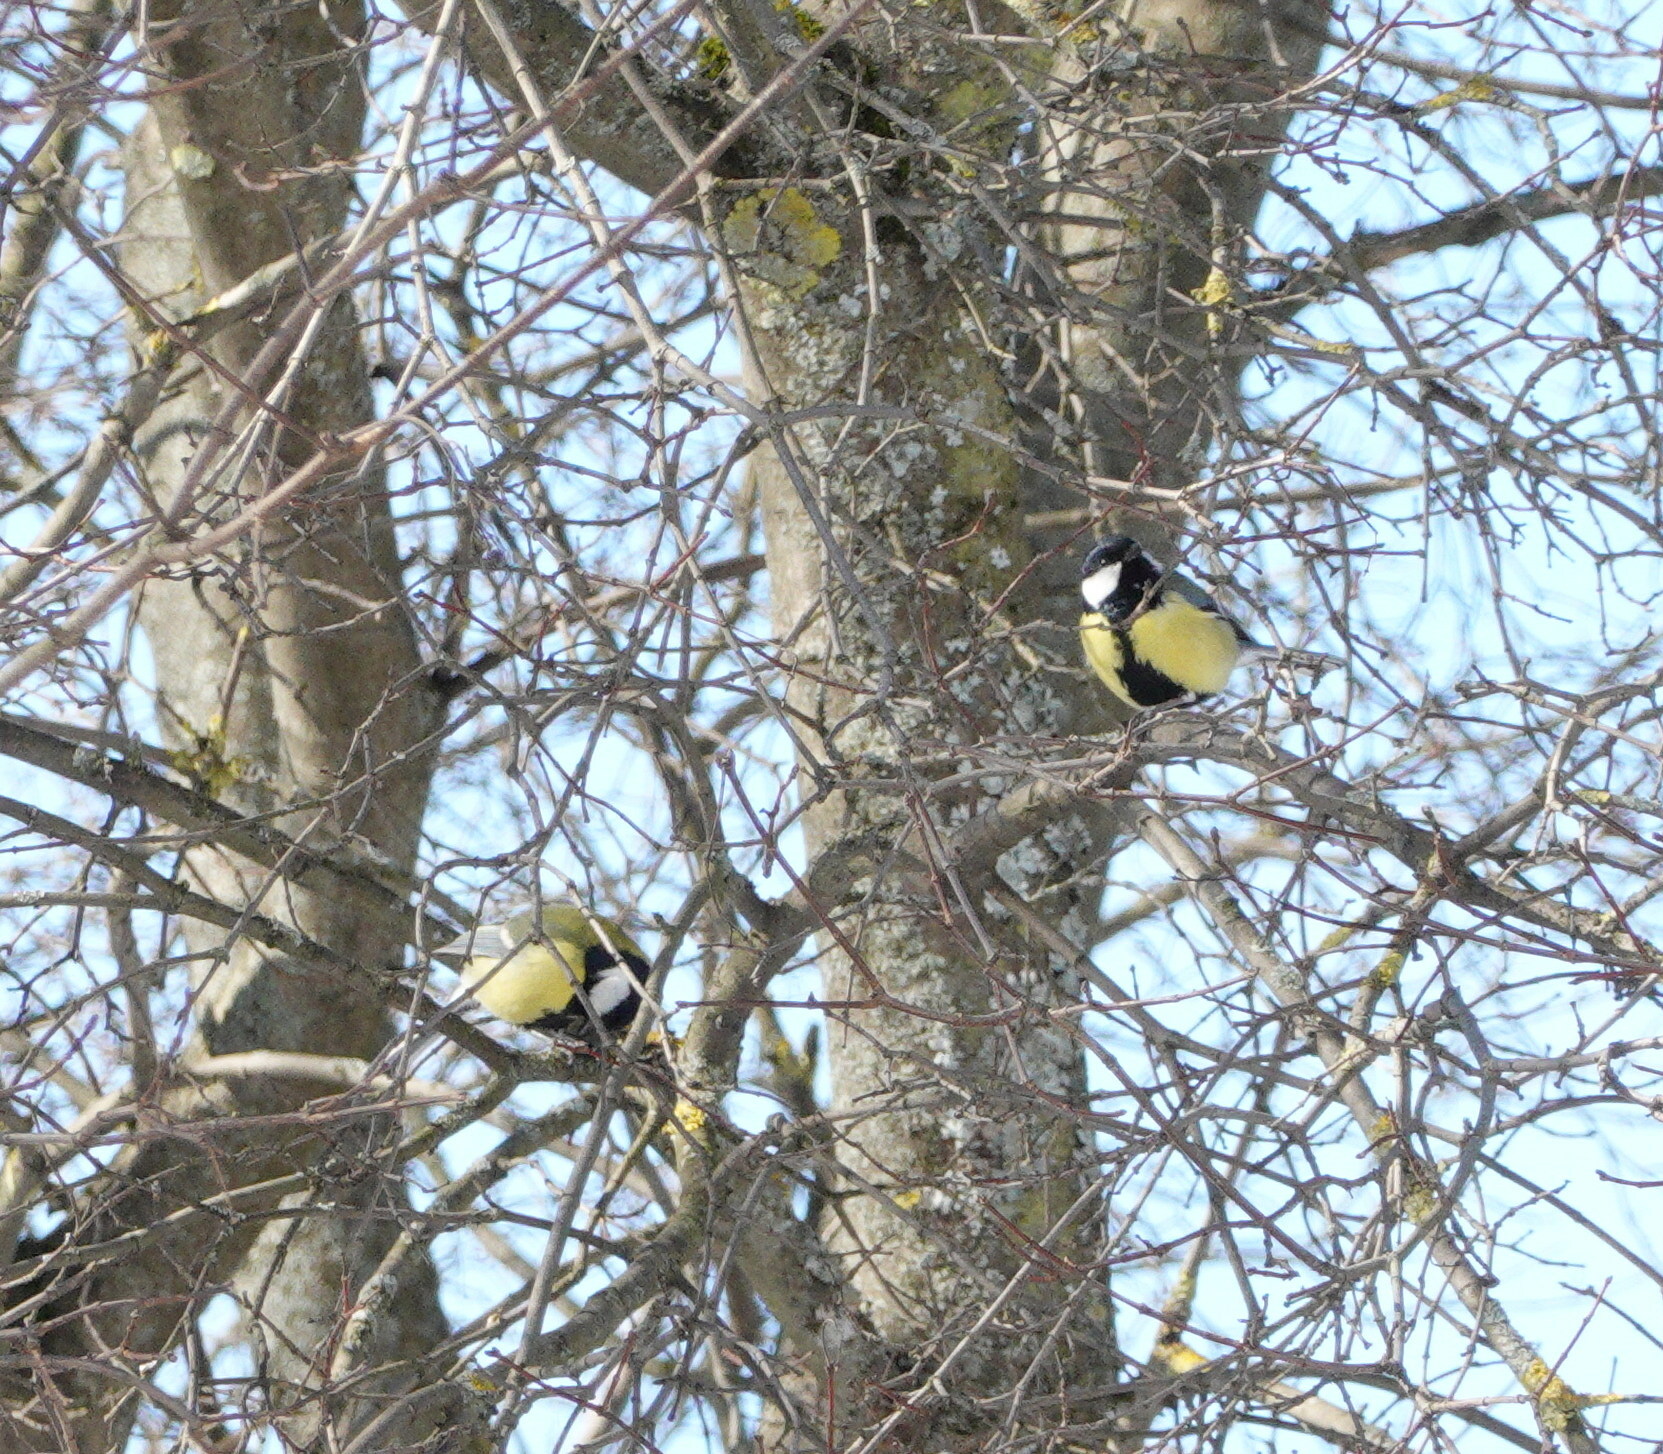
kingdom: Animalia
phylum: Chordata
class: Aves
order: Passeriformes
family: Paridae
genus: Parus
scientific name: Parus major
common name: Great tit
